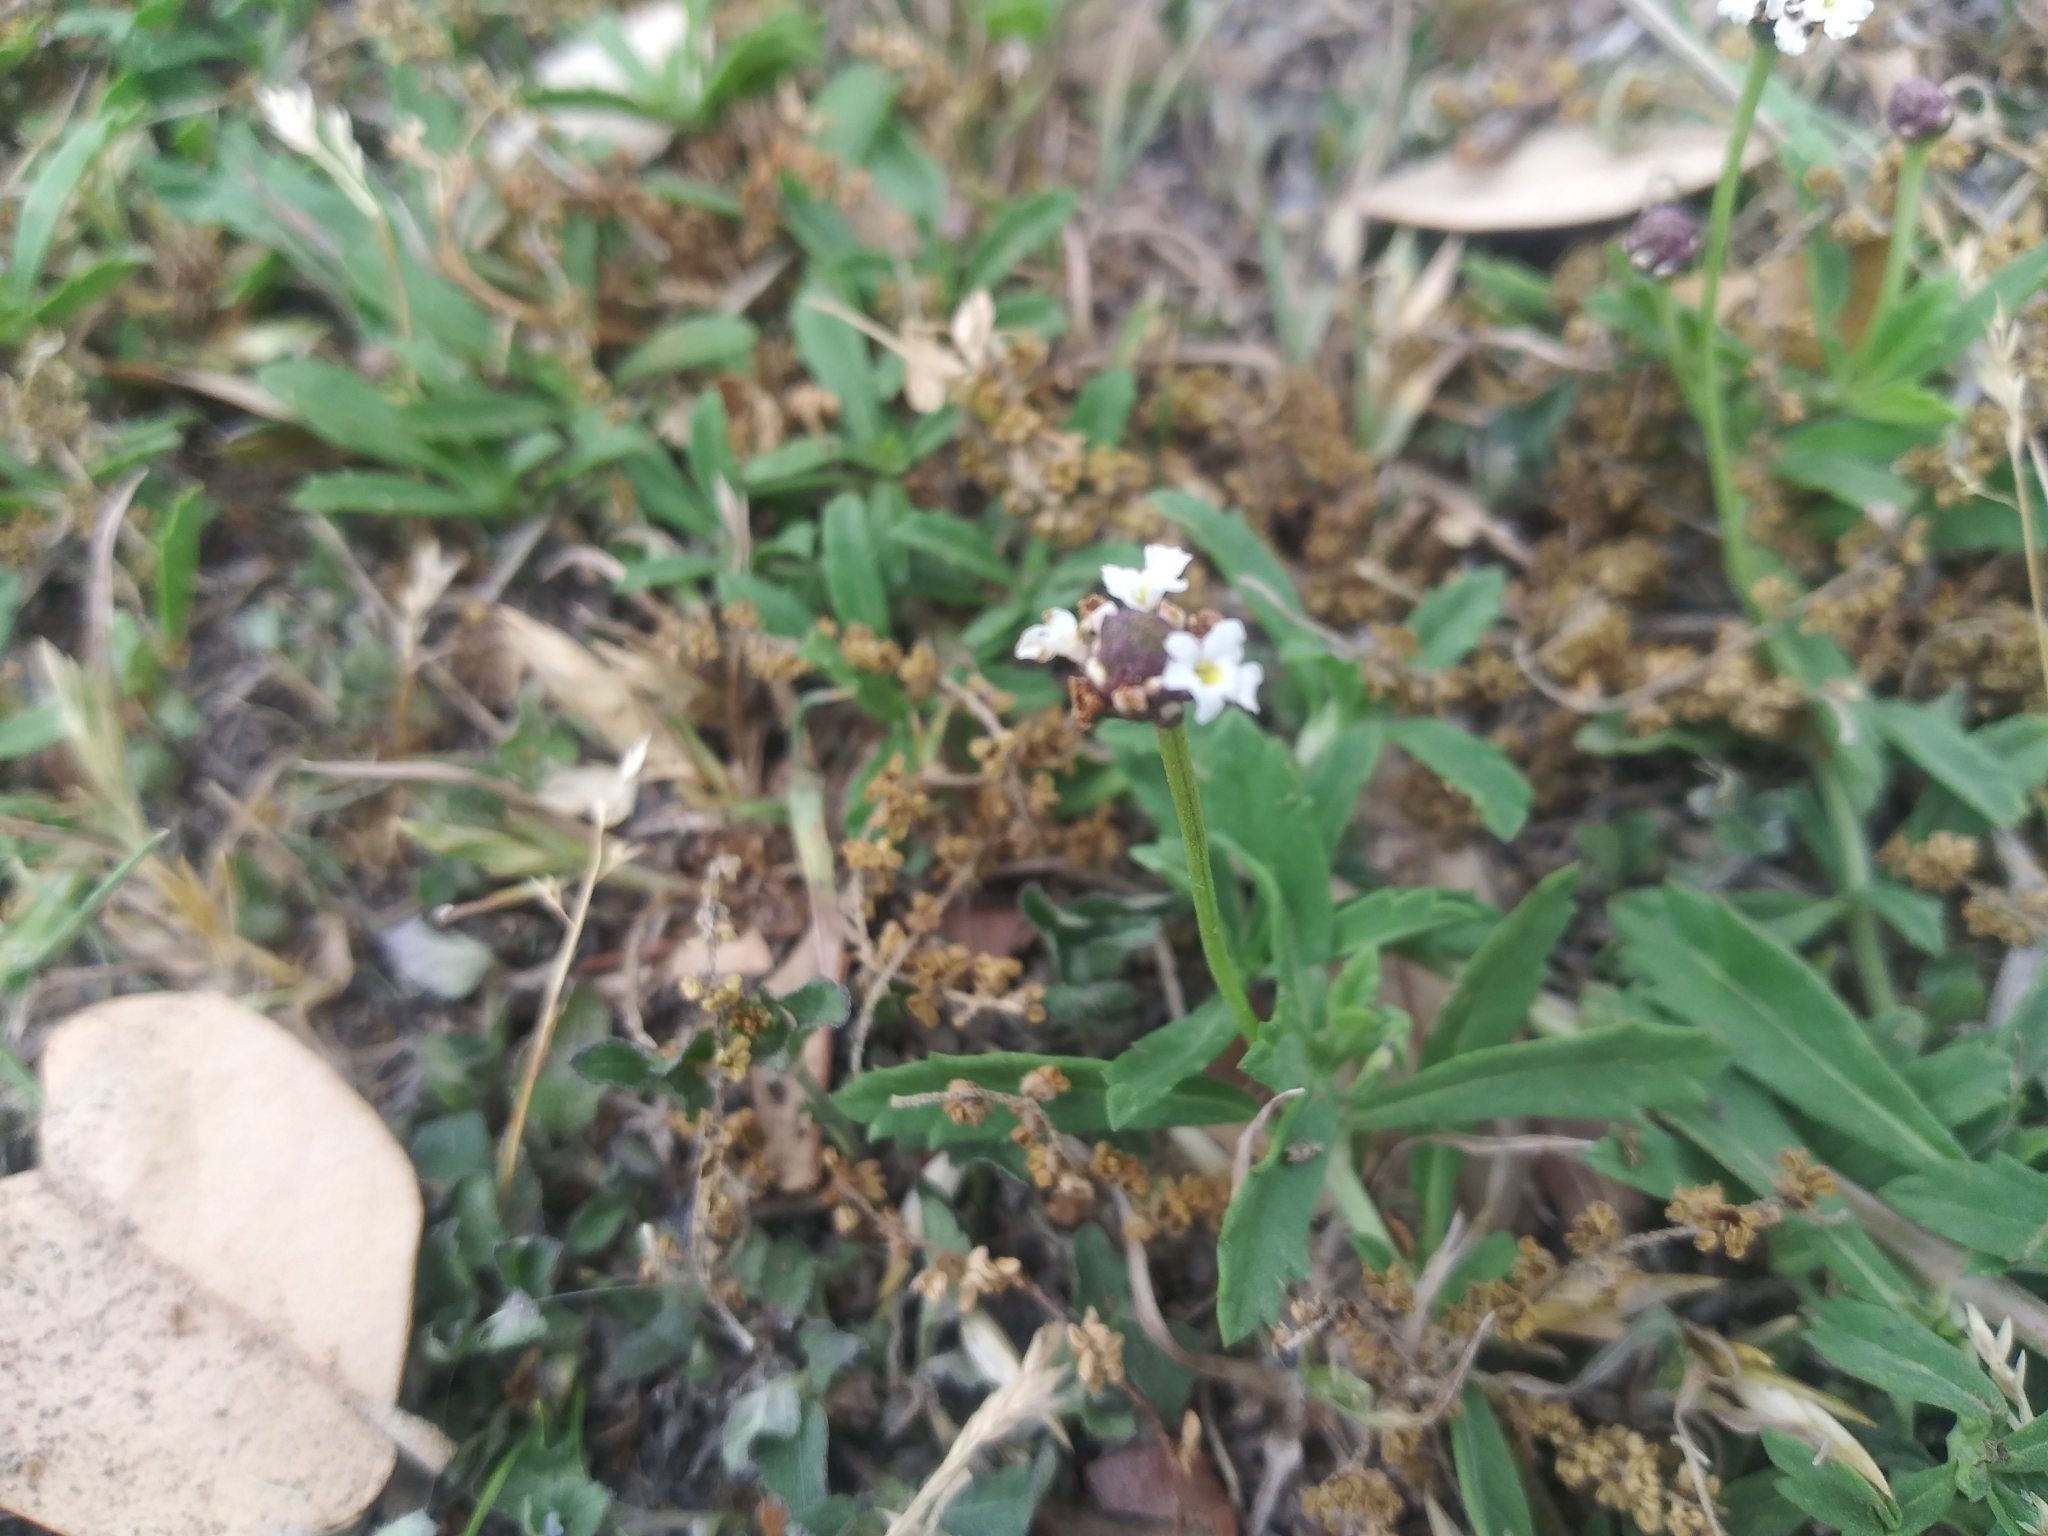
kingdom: Plantae
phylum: Tracheophyta
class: Magnoliopsida
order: Lamiales
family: Verbenaceae
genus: Phyla
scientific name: Phyla nodiflora
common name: Frogfruit
